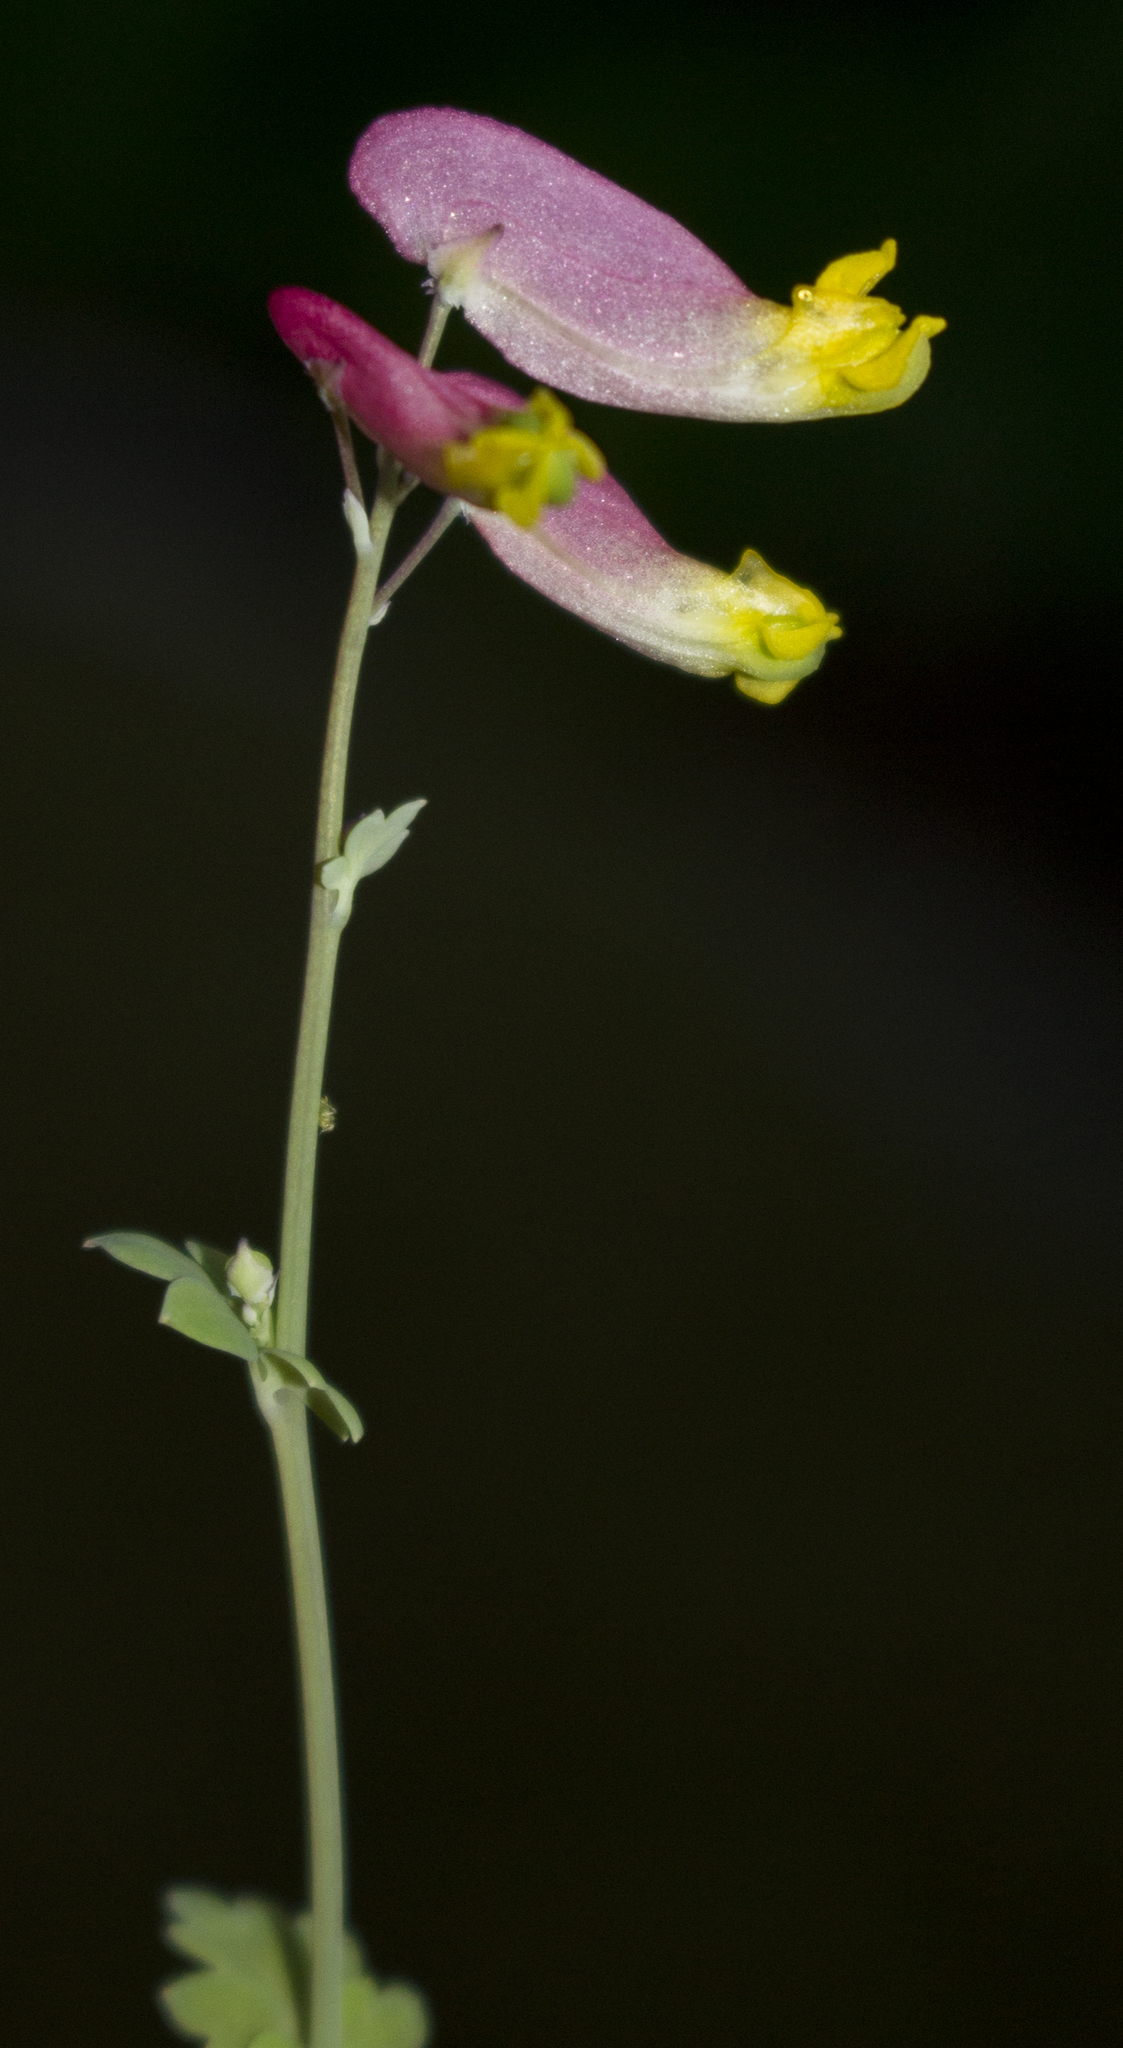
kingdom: Plantae
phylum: Tracheophyta
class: Magnoliopsida
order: Ranunculales
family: Papaveraceae
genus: Capnoides
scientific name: Capnoides sempervirens
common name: Rock harlequin
